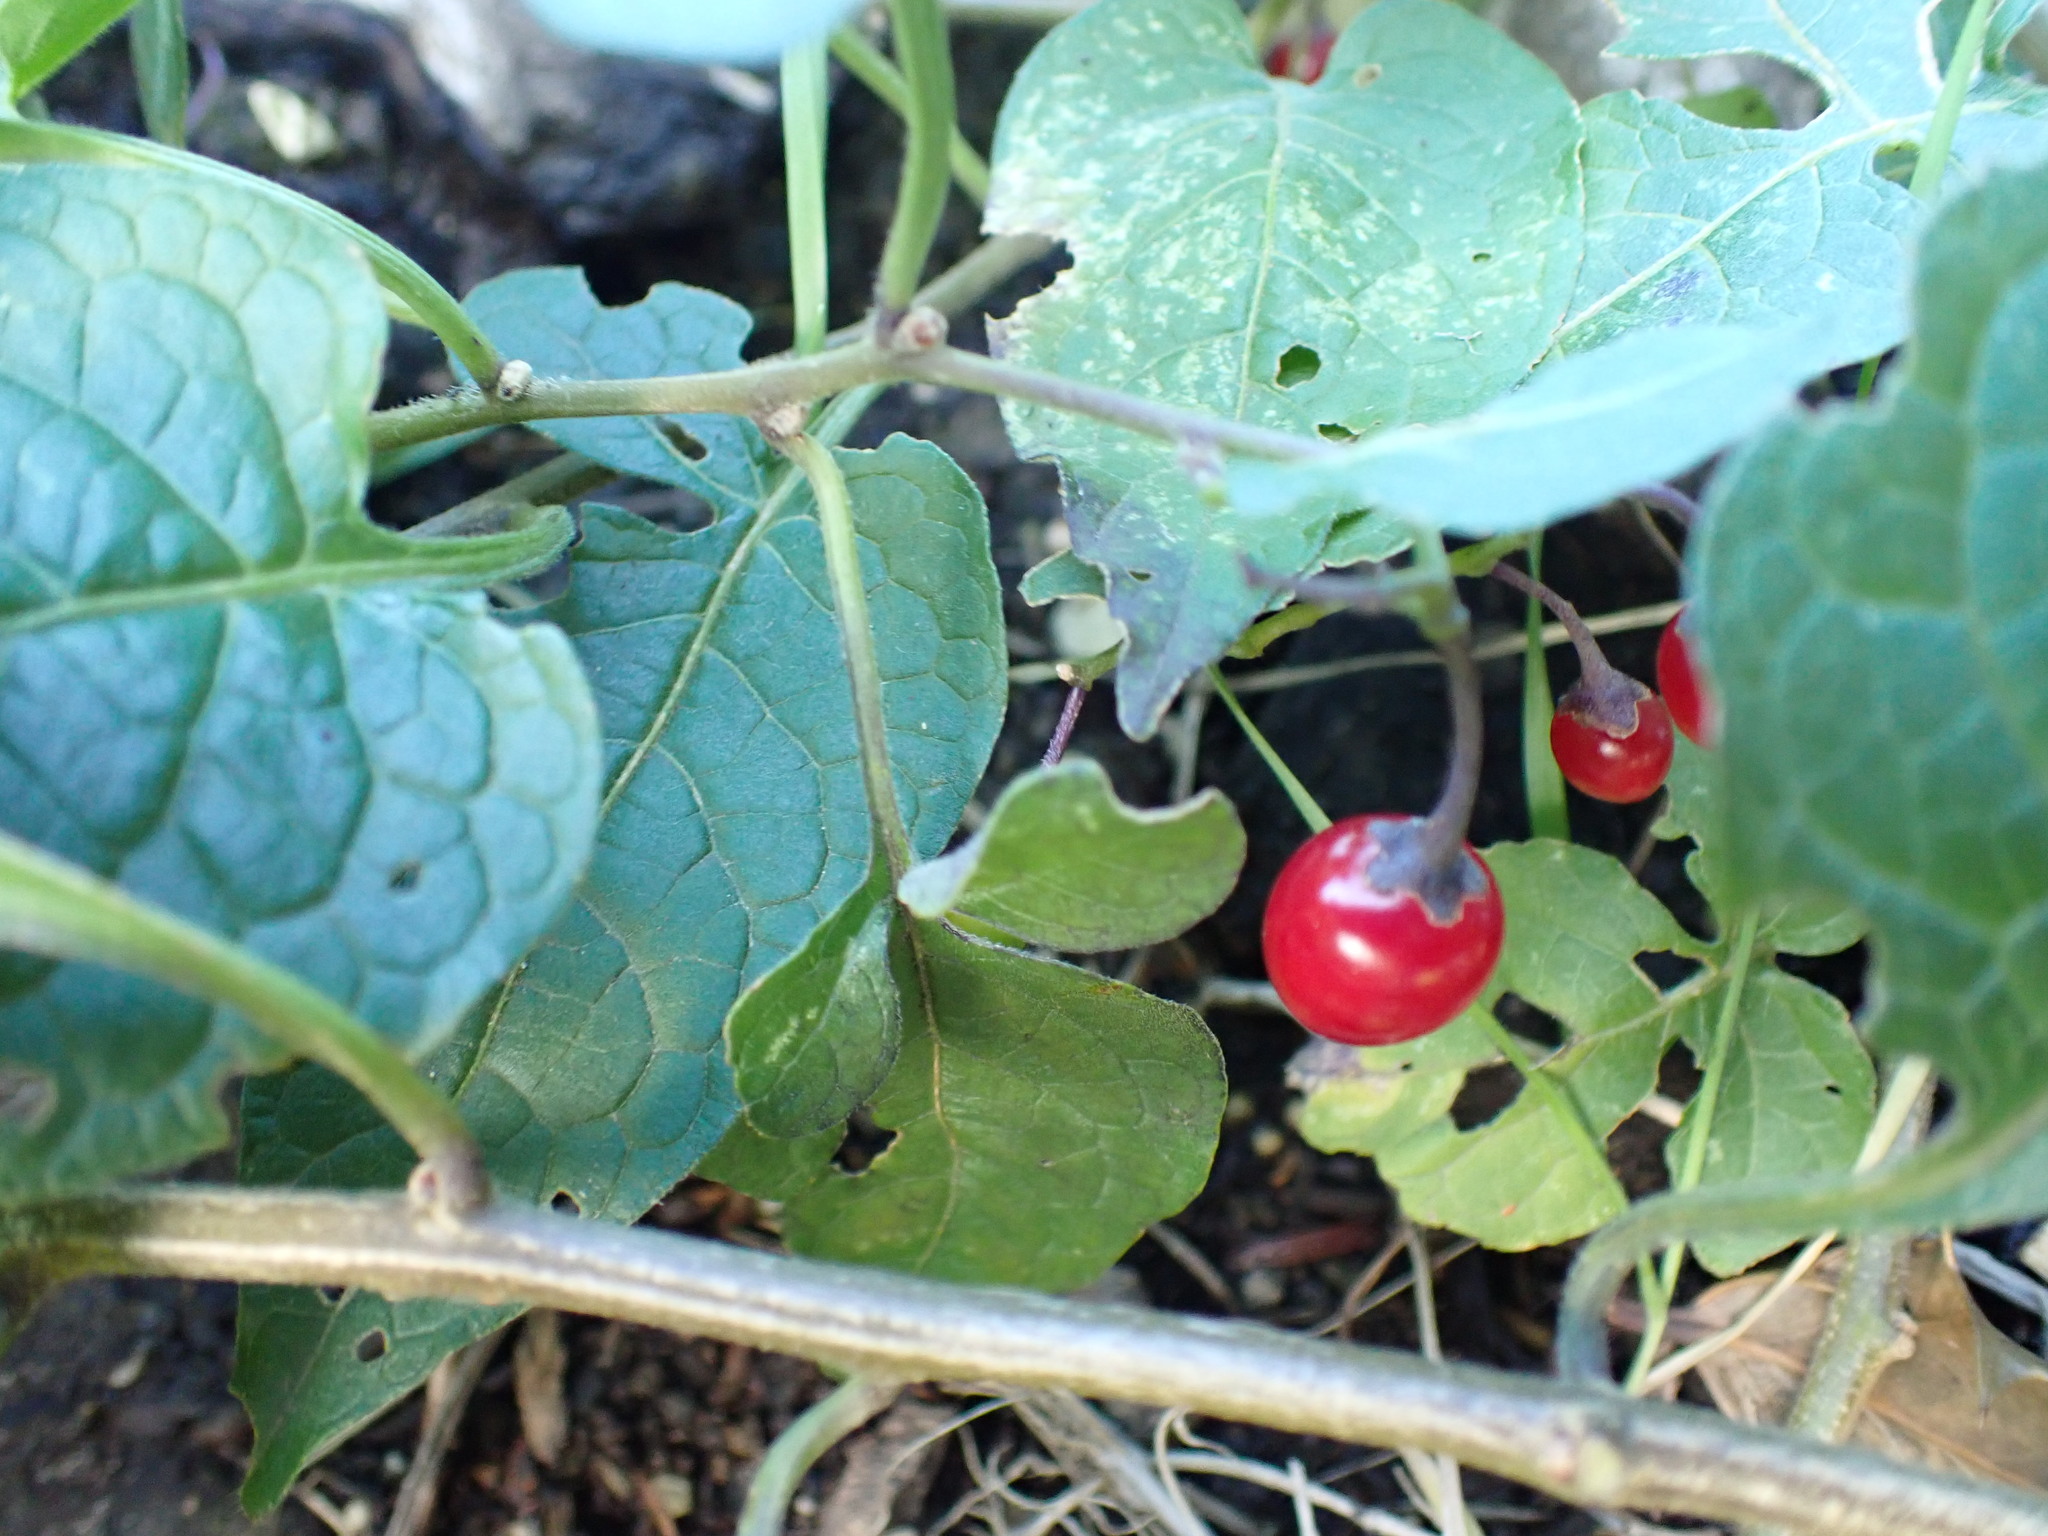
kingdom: Plantae
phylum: Tracheophyta
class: Magnoliopsida
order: Solanales
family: Solanaceae
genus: Solanum
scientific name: Solanum dulcamara
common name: Climbing nightshade
